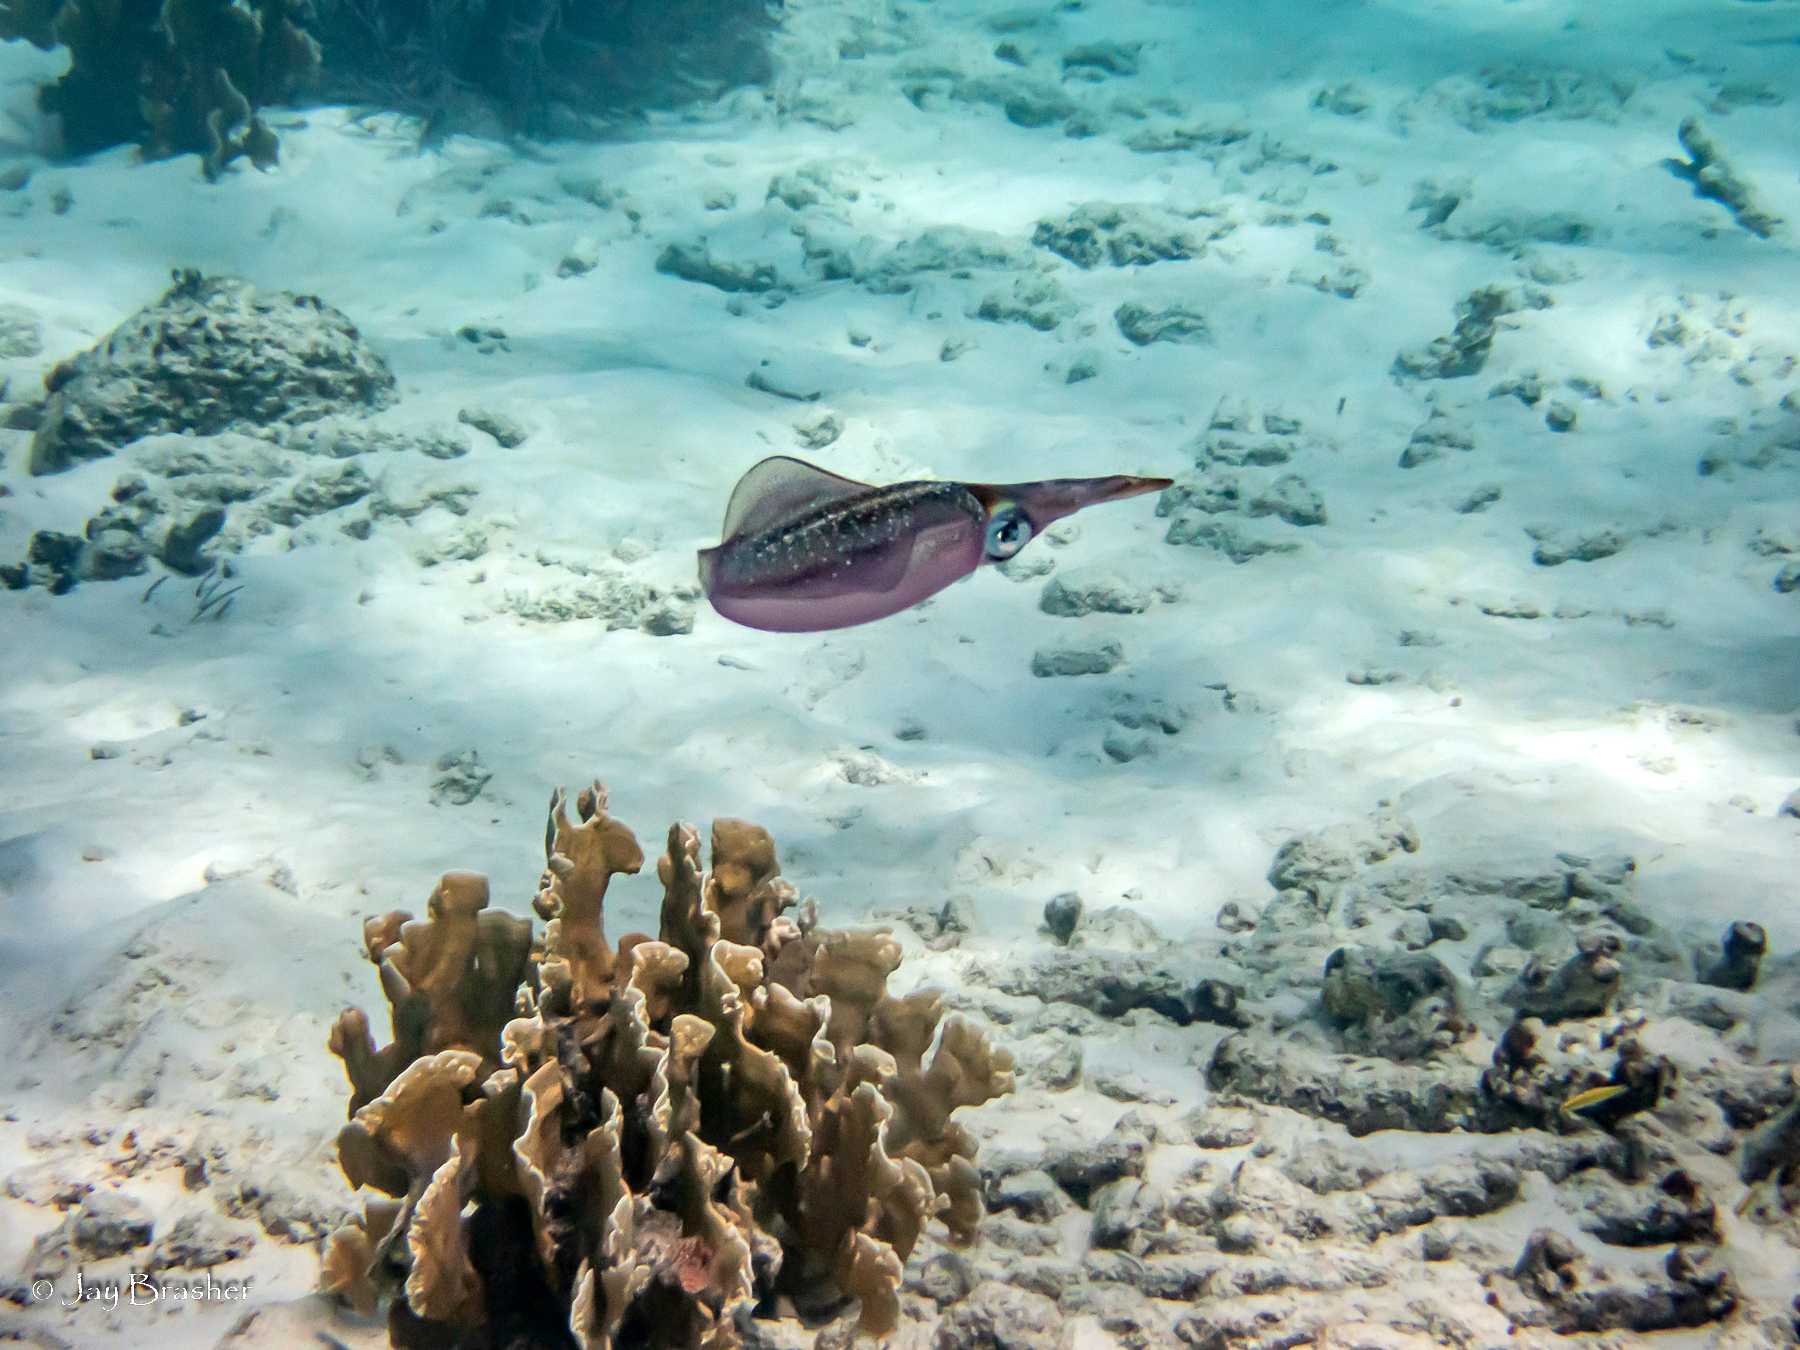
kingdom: Animalia
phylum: Mollusca
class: Cephalopoda
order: Myopsida
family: Loliginidae
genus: Sepioteuthis
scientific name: Sepioteuthis sepioidea
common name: Caribbean reef squid
